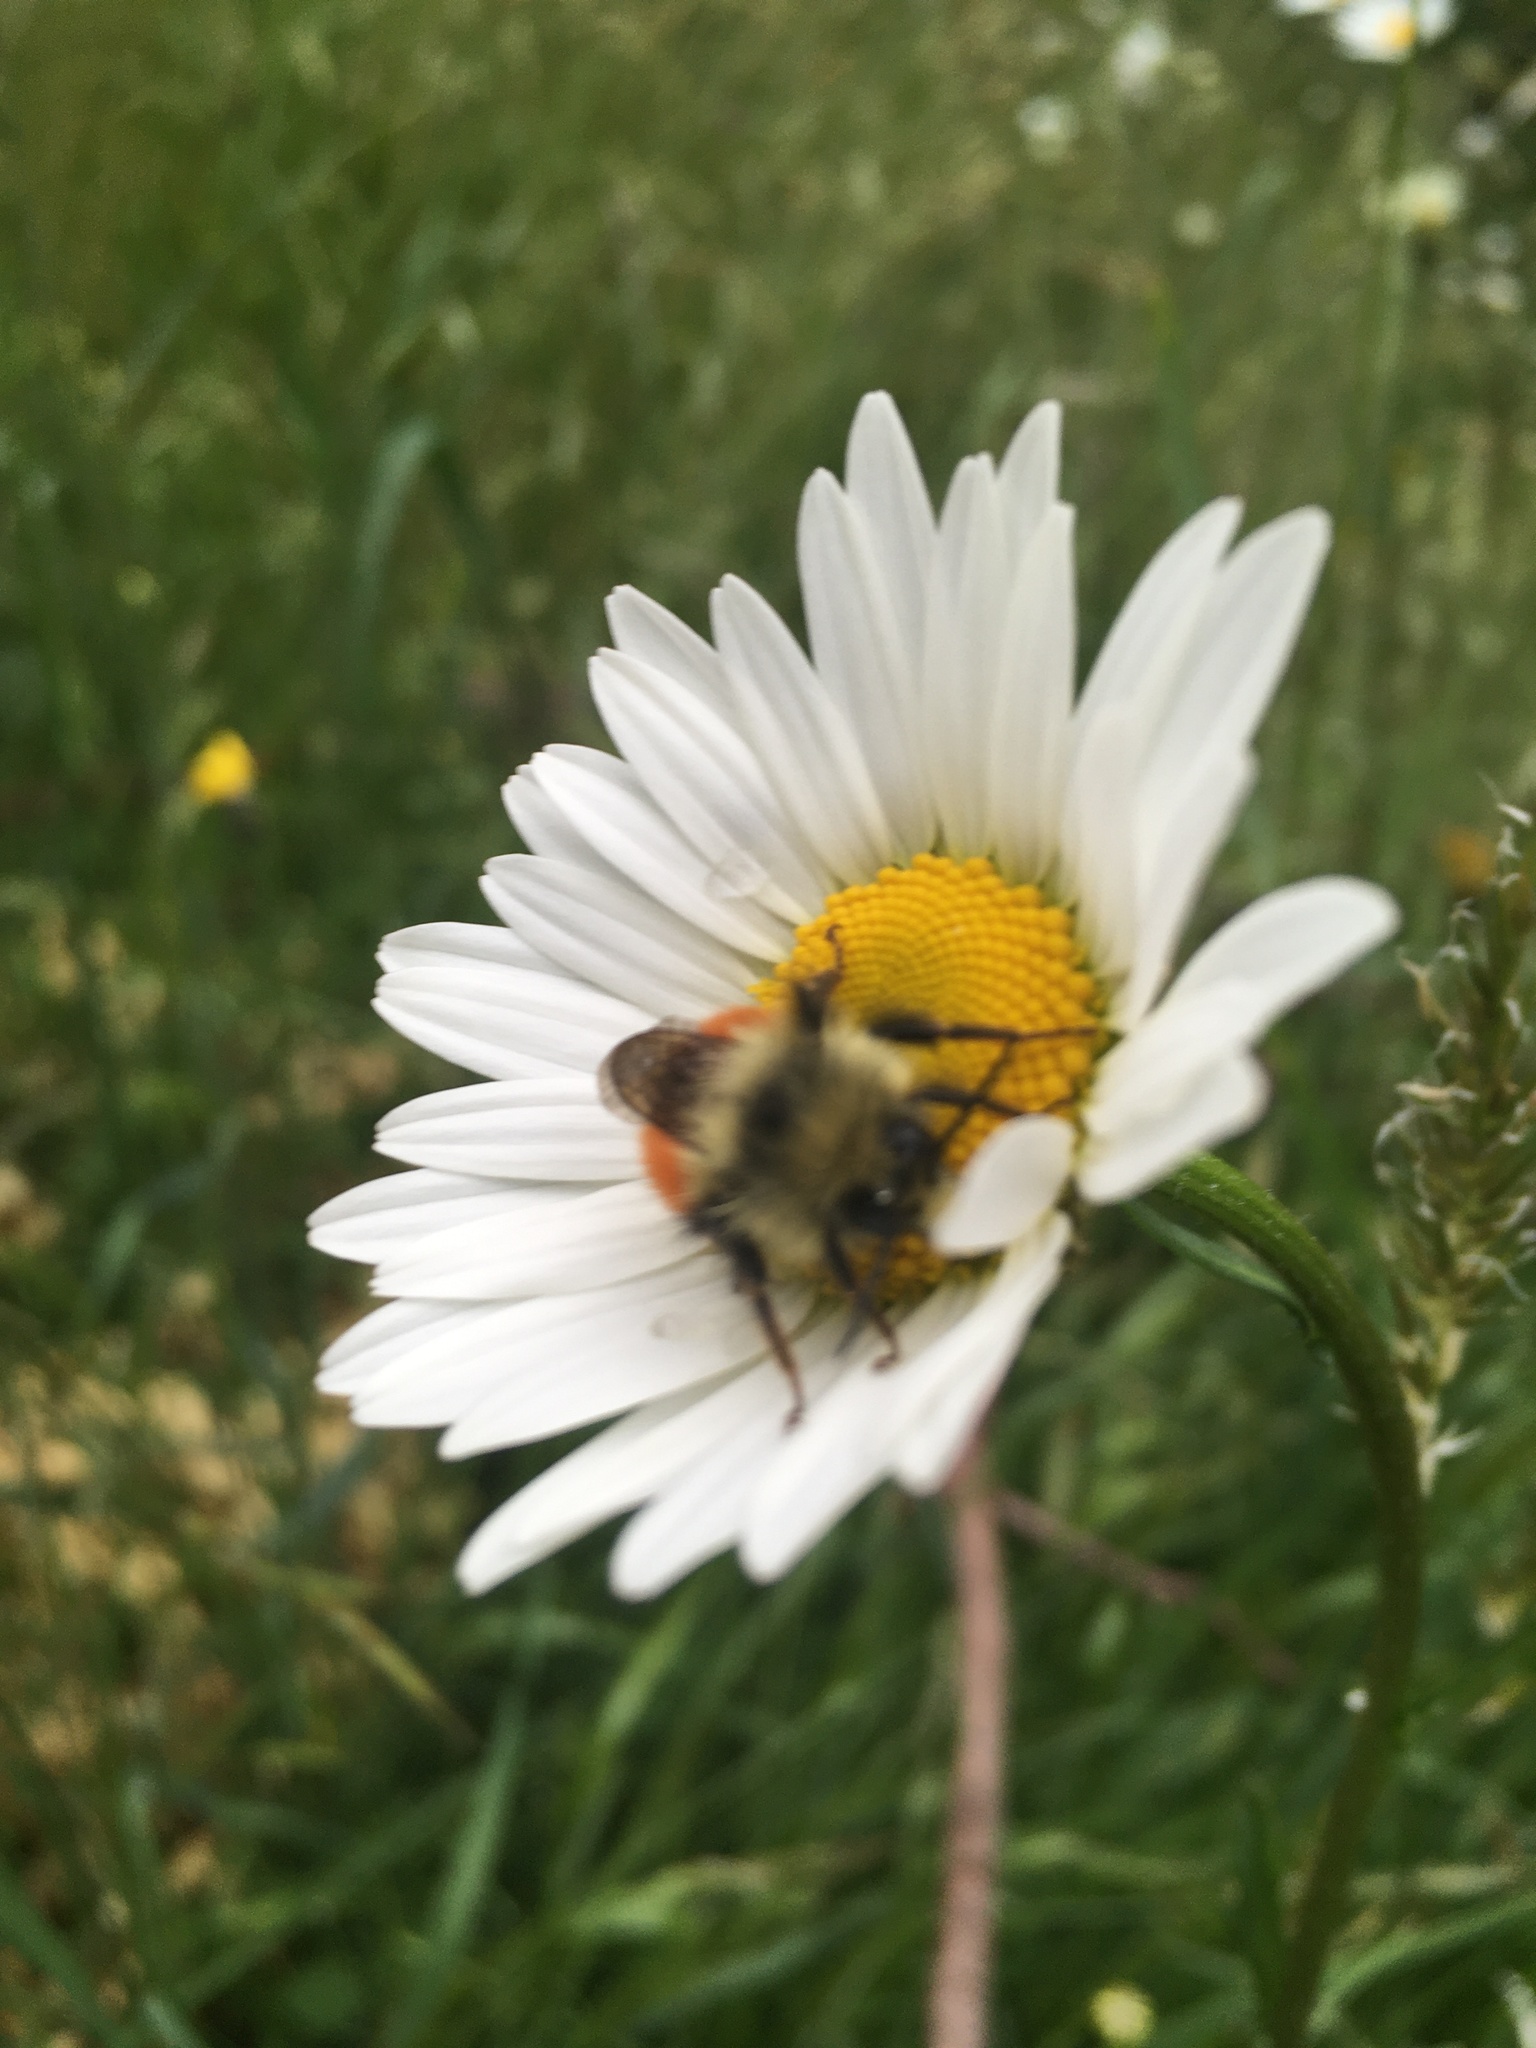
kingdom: Animalia
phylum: Arthropoda
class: Insecta
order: Hymenoptera
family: Apidae
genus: Bombus
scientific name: Bombus melanopygus
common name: Black tail bumble bee
